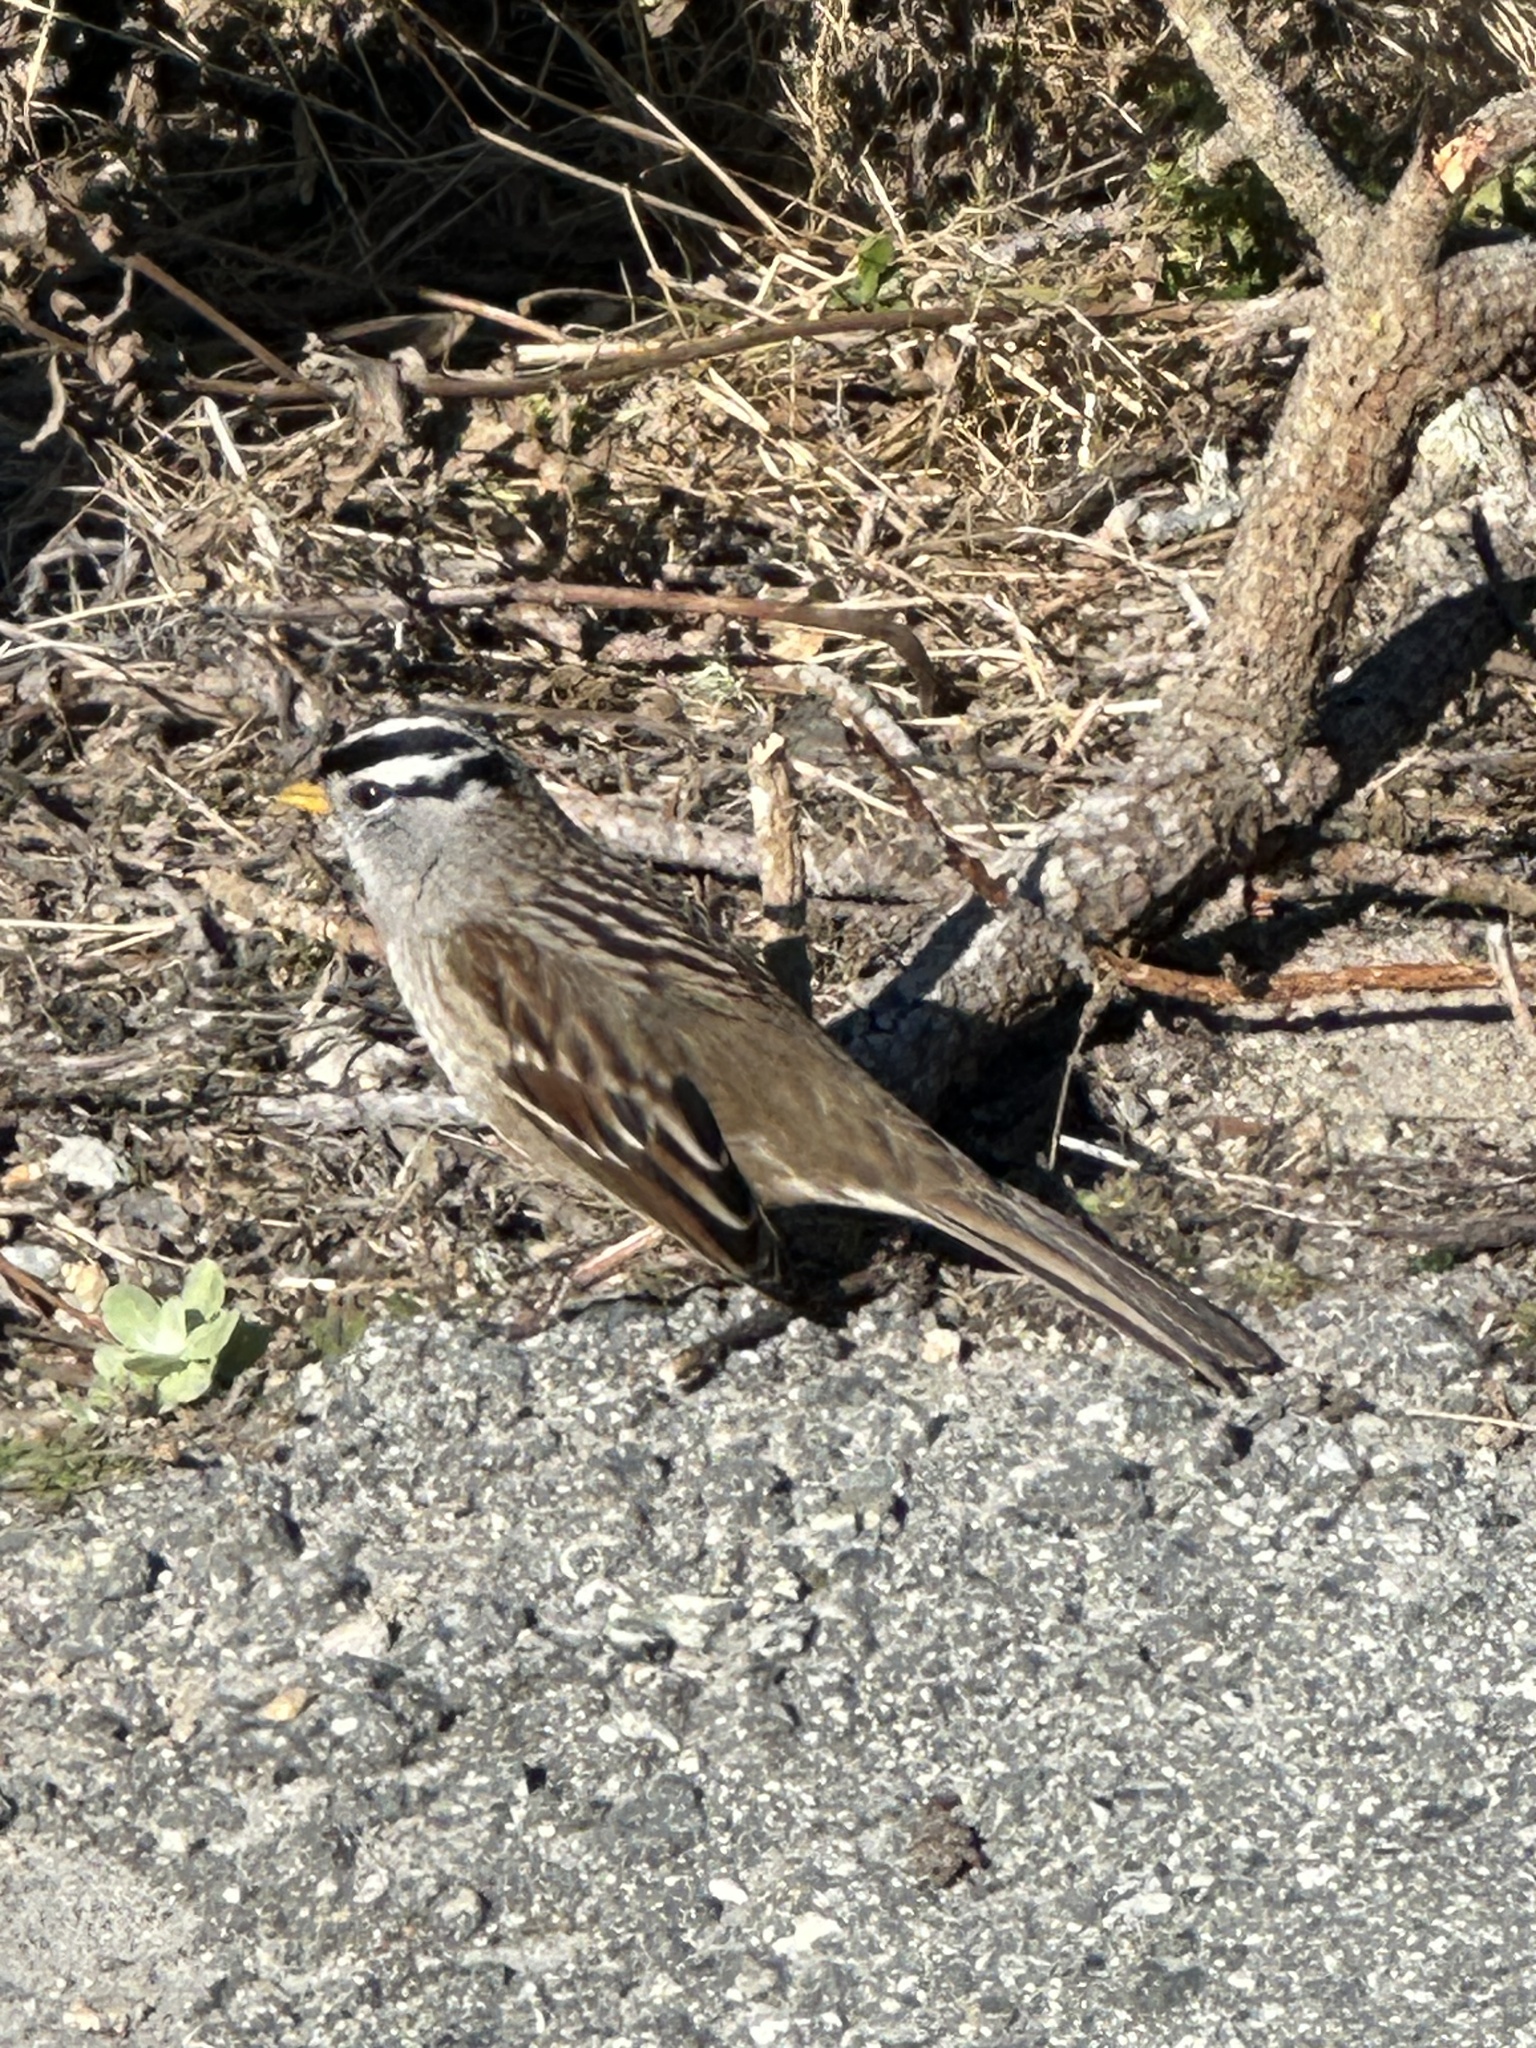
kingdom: Animalia
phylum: Chordata
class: Aves
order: Passeriformes
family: Passerellidae
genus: Zonotrichia
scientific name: Zonotrichia leucophrys
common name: White-crowned sparrow
